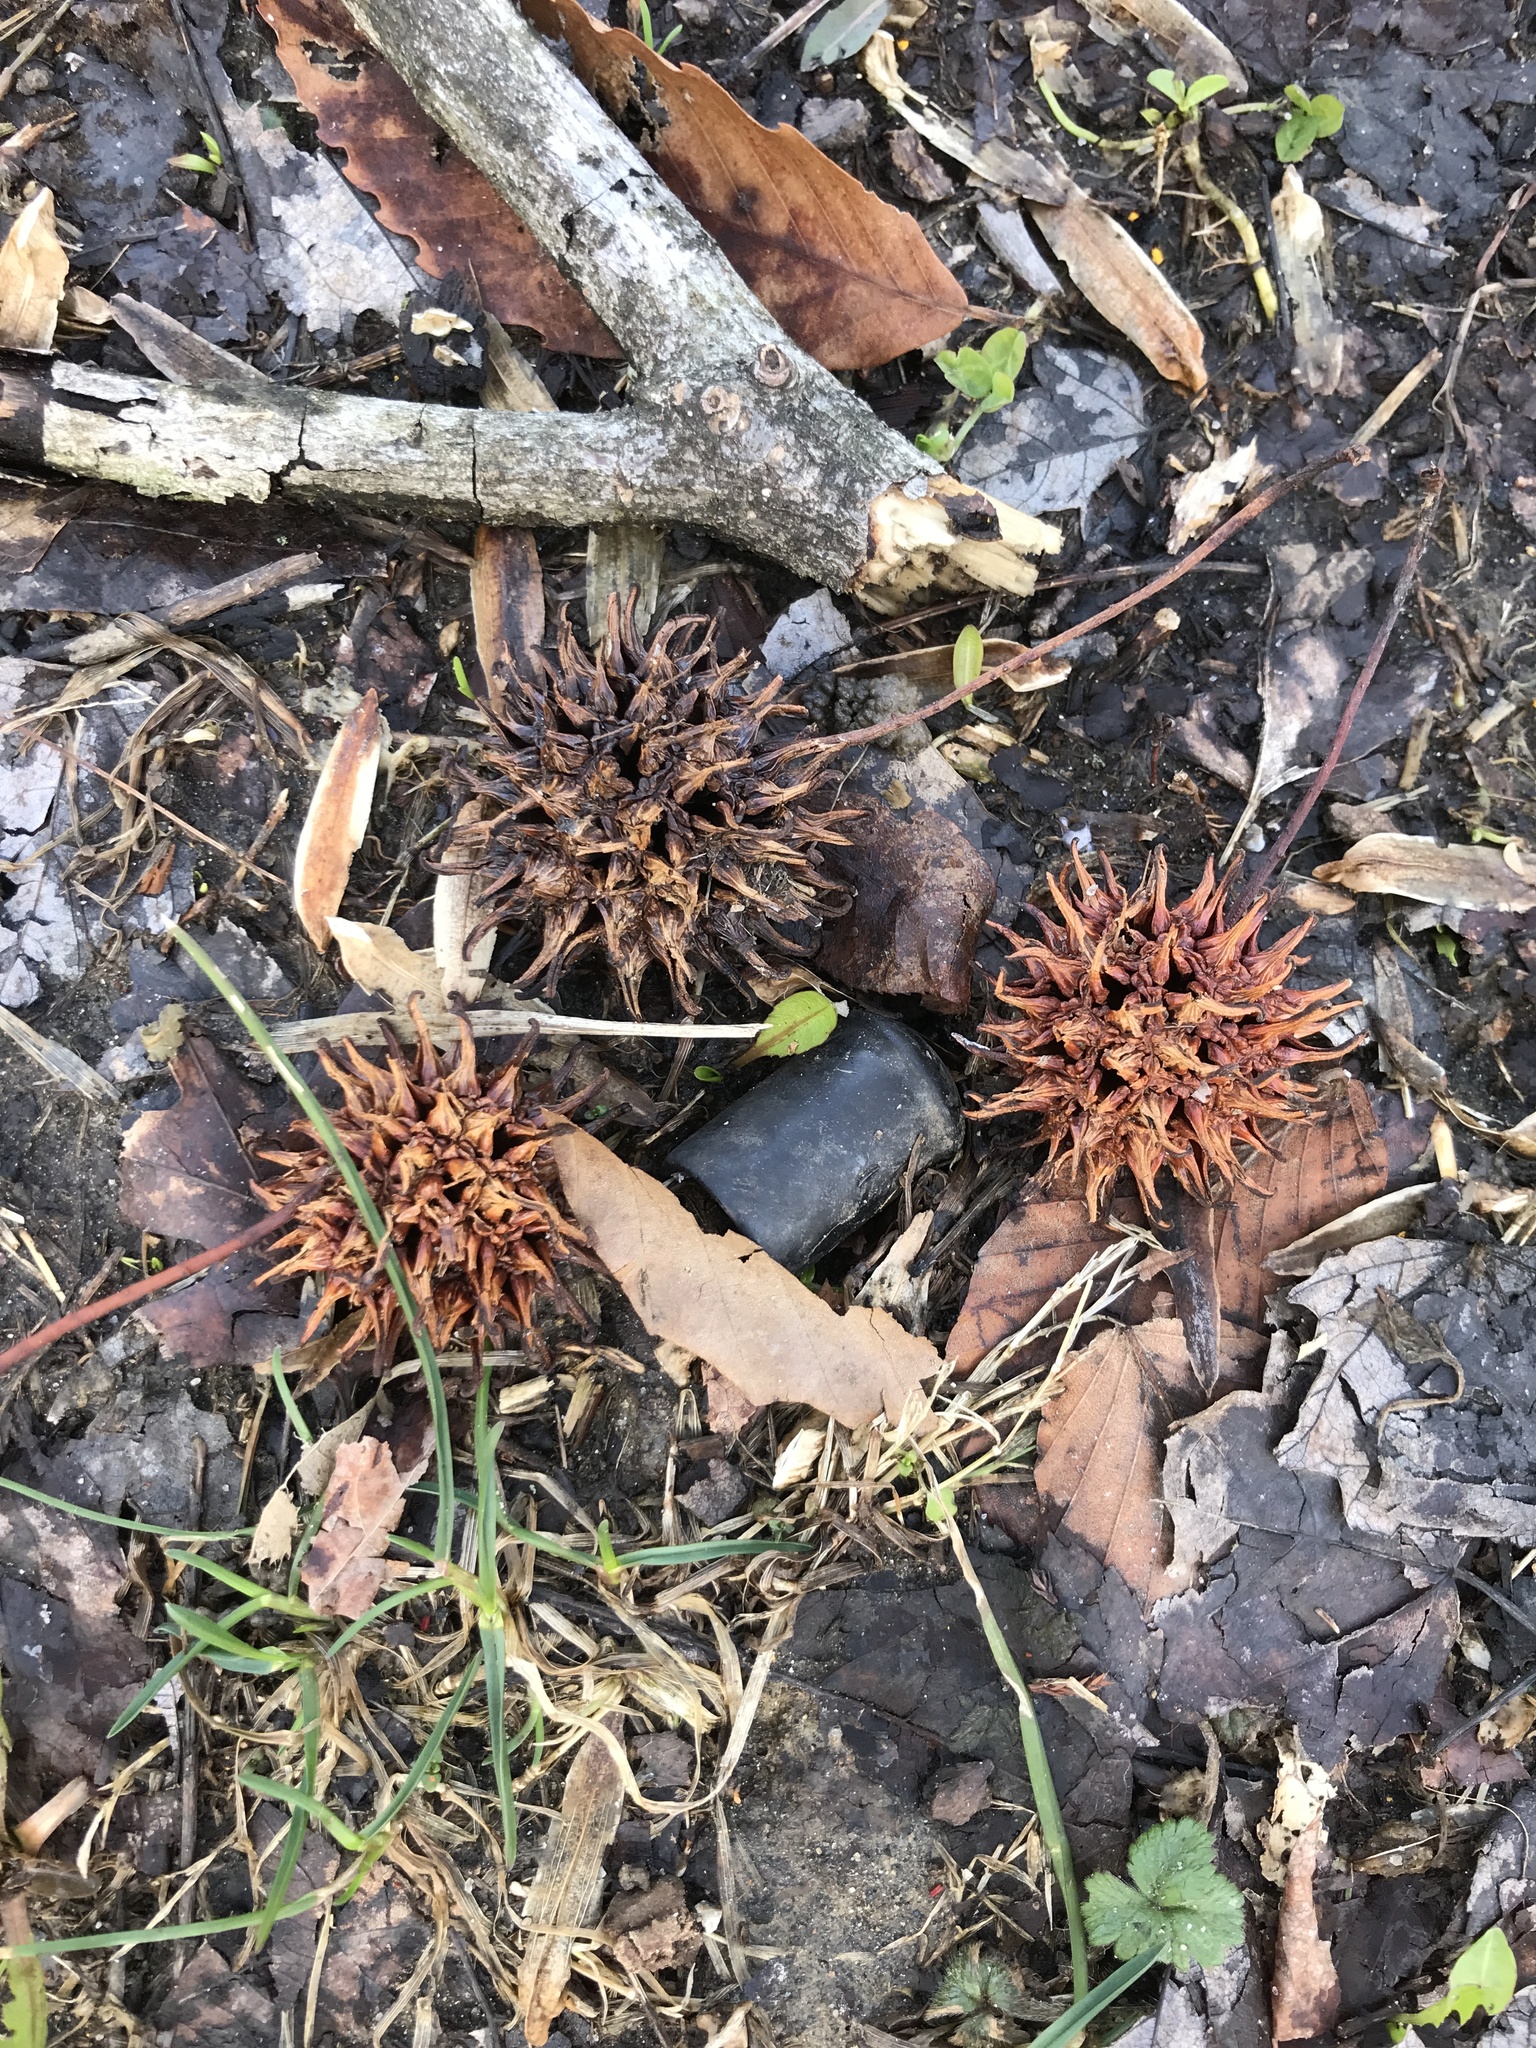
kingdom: Plantae
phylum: Tracheophyta
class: Magnoliopsida
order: Saxifragales
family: Altingiaceae
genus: Liquidambar
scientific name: Liquidambar styraciflua
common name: Sweet gum
